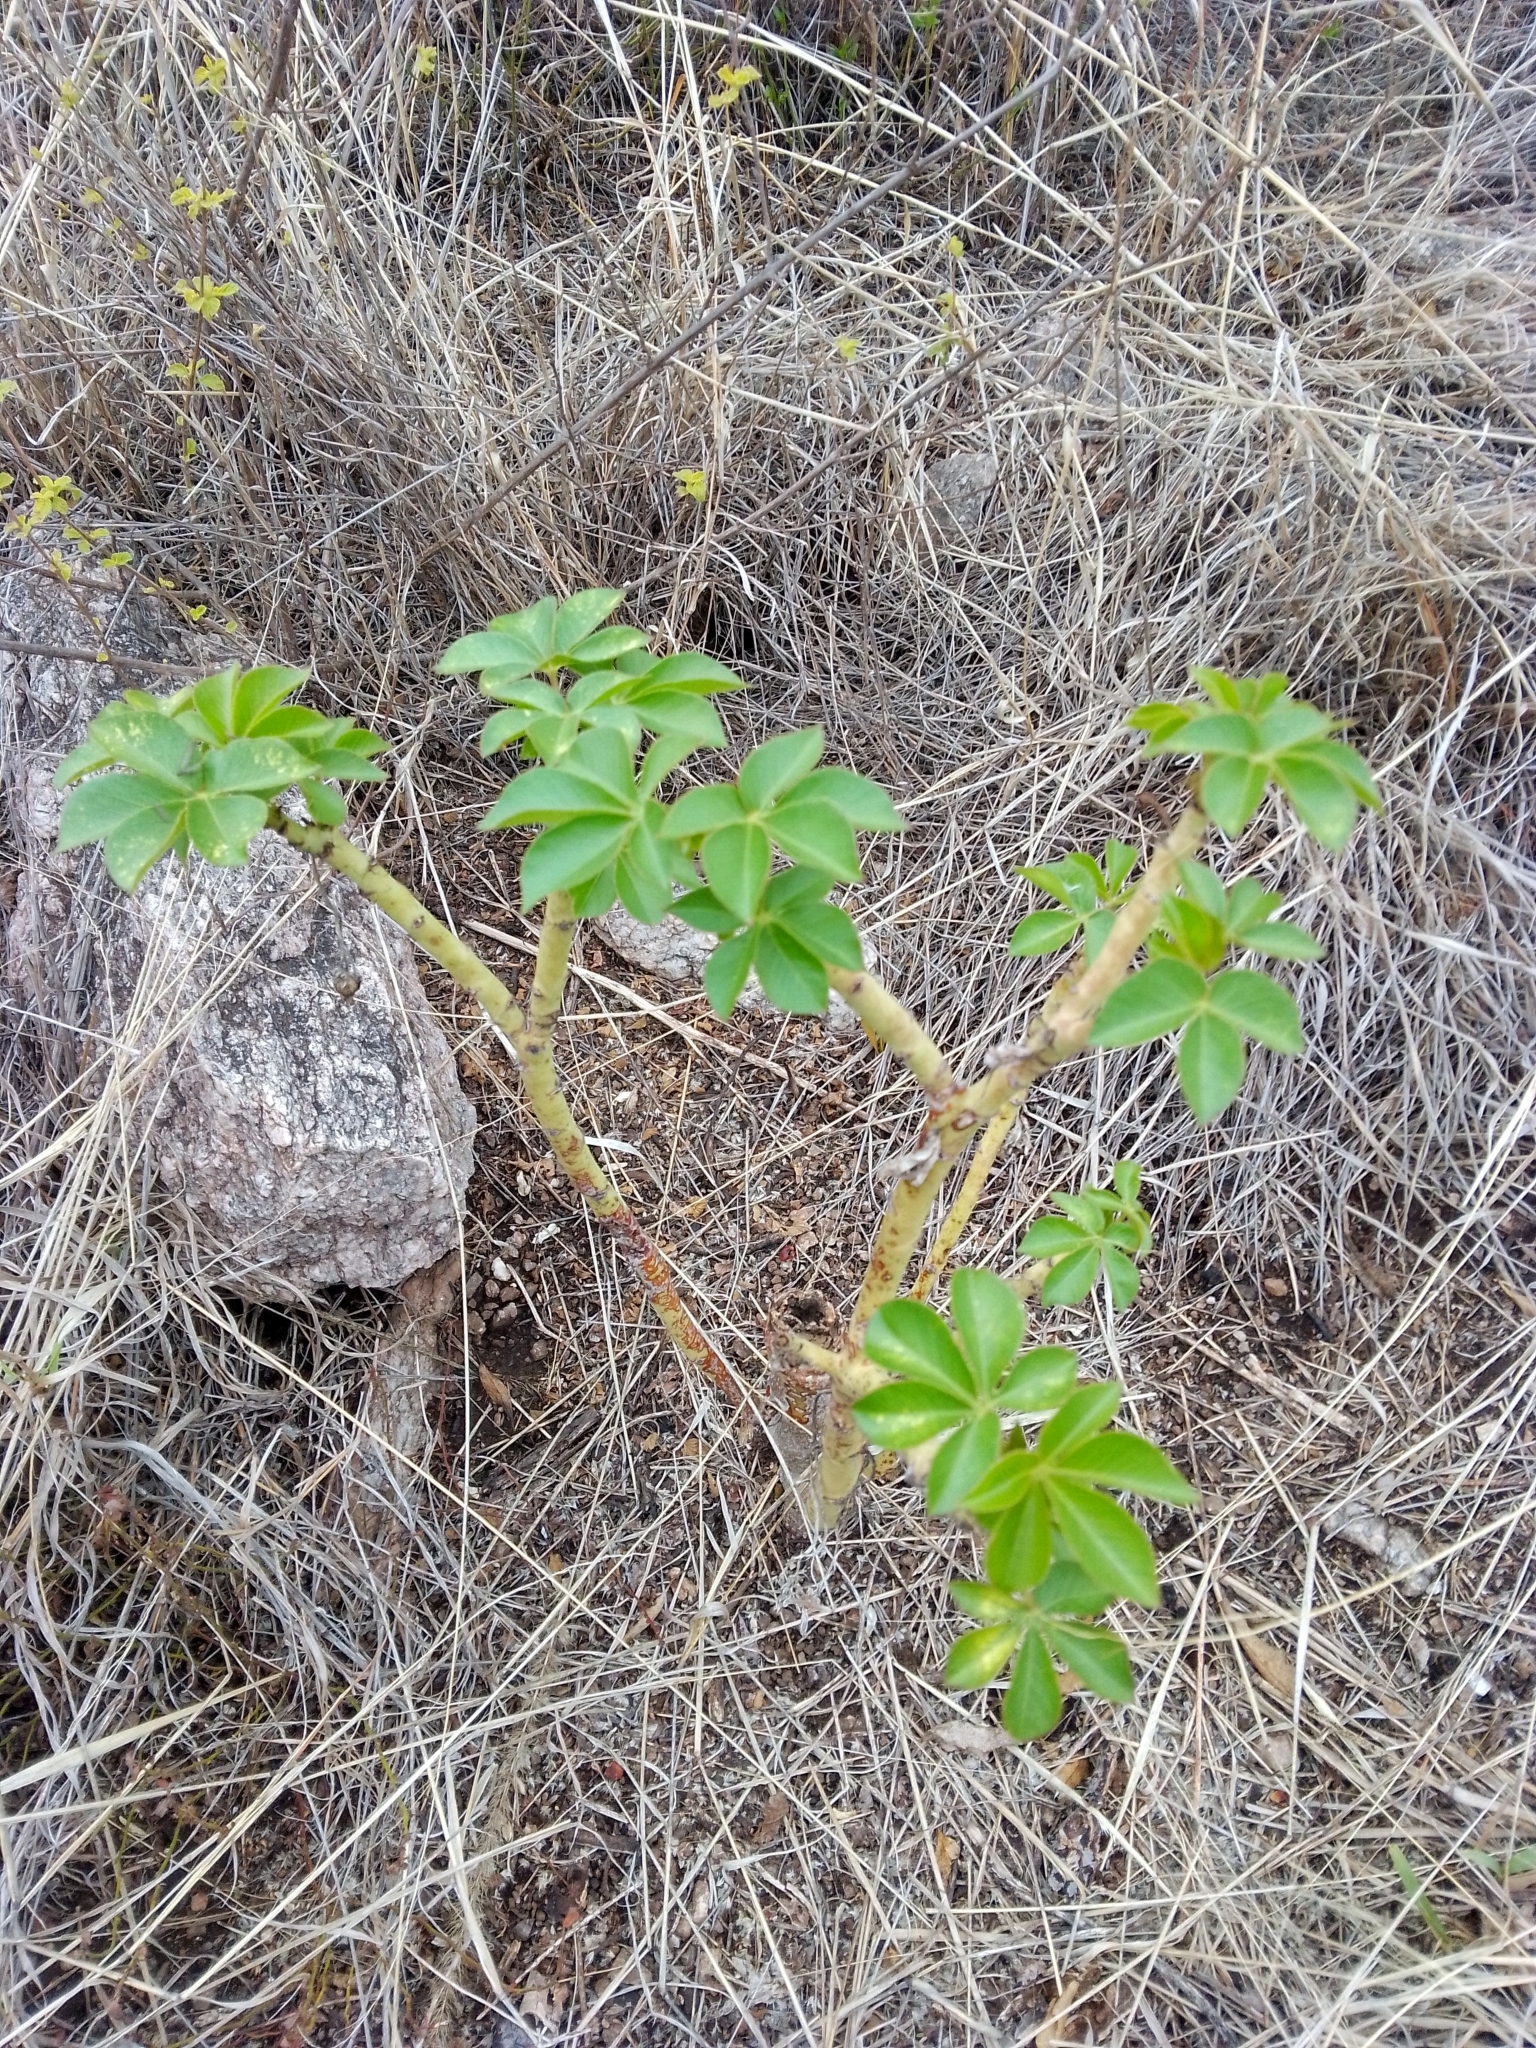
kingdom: Plantae
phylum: Tracheophyta
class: Magnoliopsida
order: Malpighiales
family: Euphorbiaceae
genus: Jatropha
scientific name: Jatropha excisa
